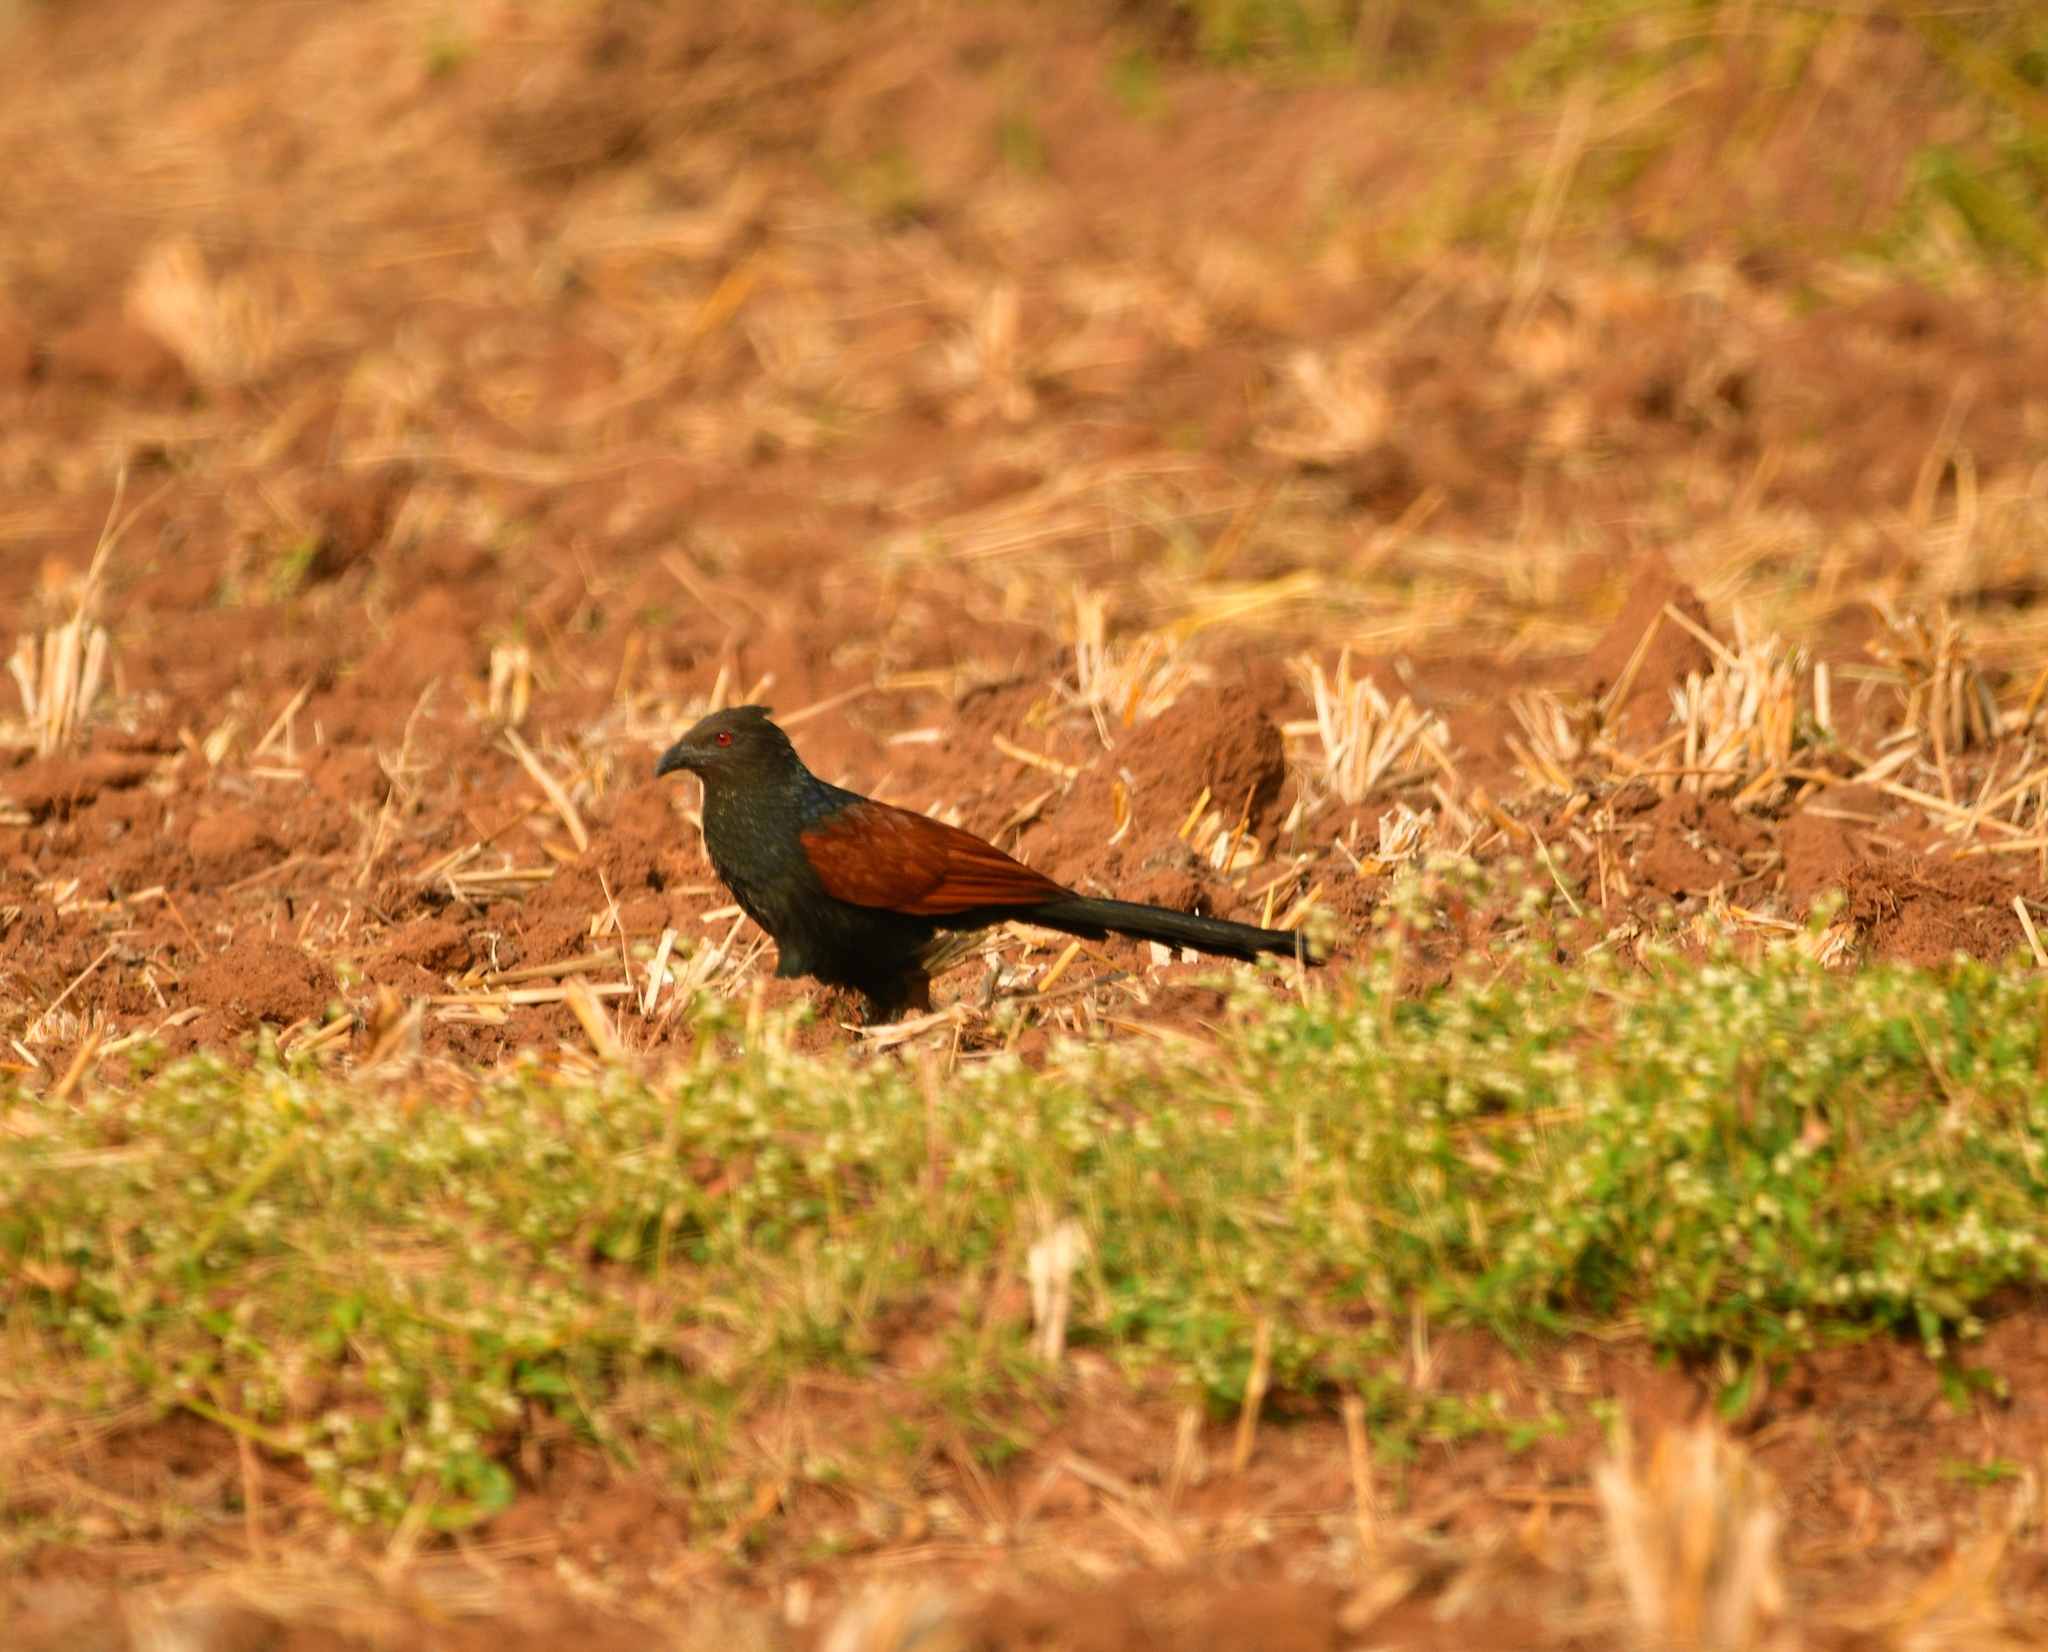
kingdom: Animalia
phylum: Chordata
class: Aves
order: Cuculiformes
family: Cuculidae
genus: Centropus
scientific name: Centropus sinensis
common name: Greater coucal
